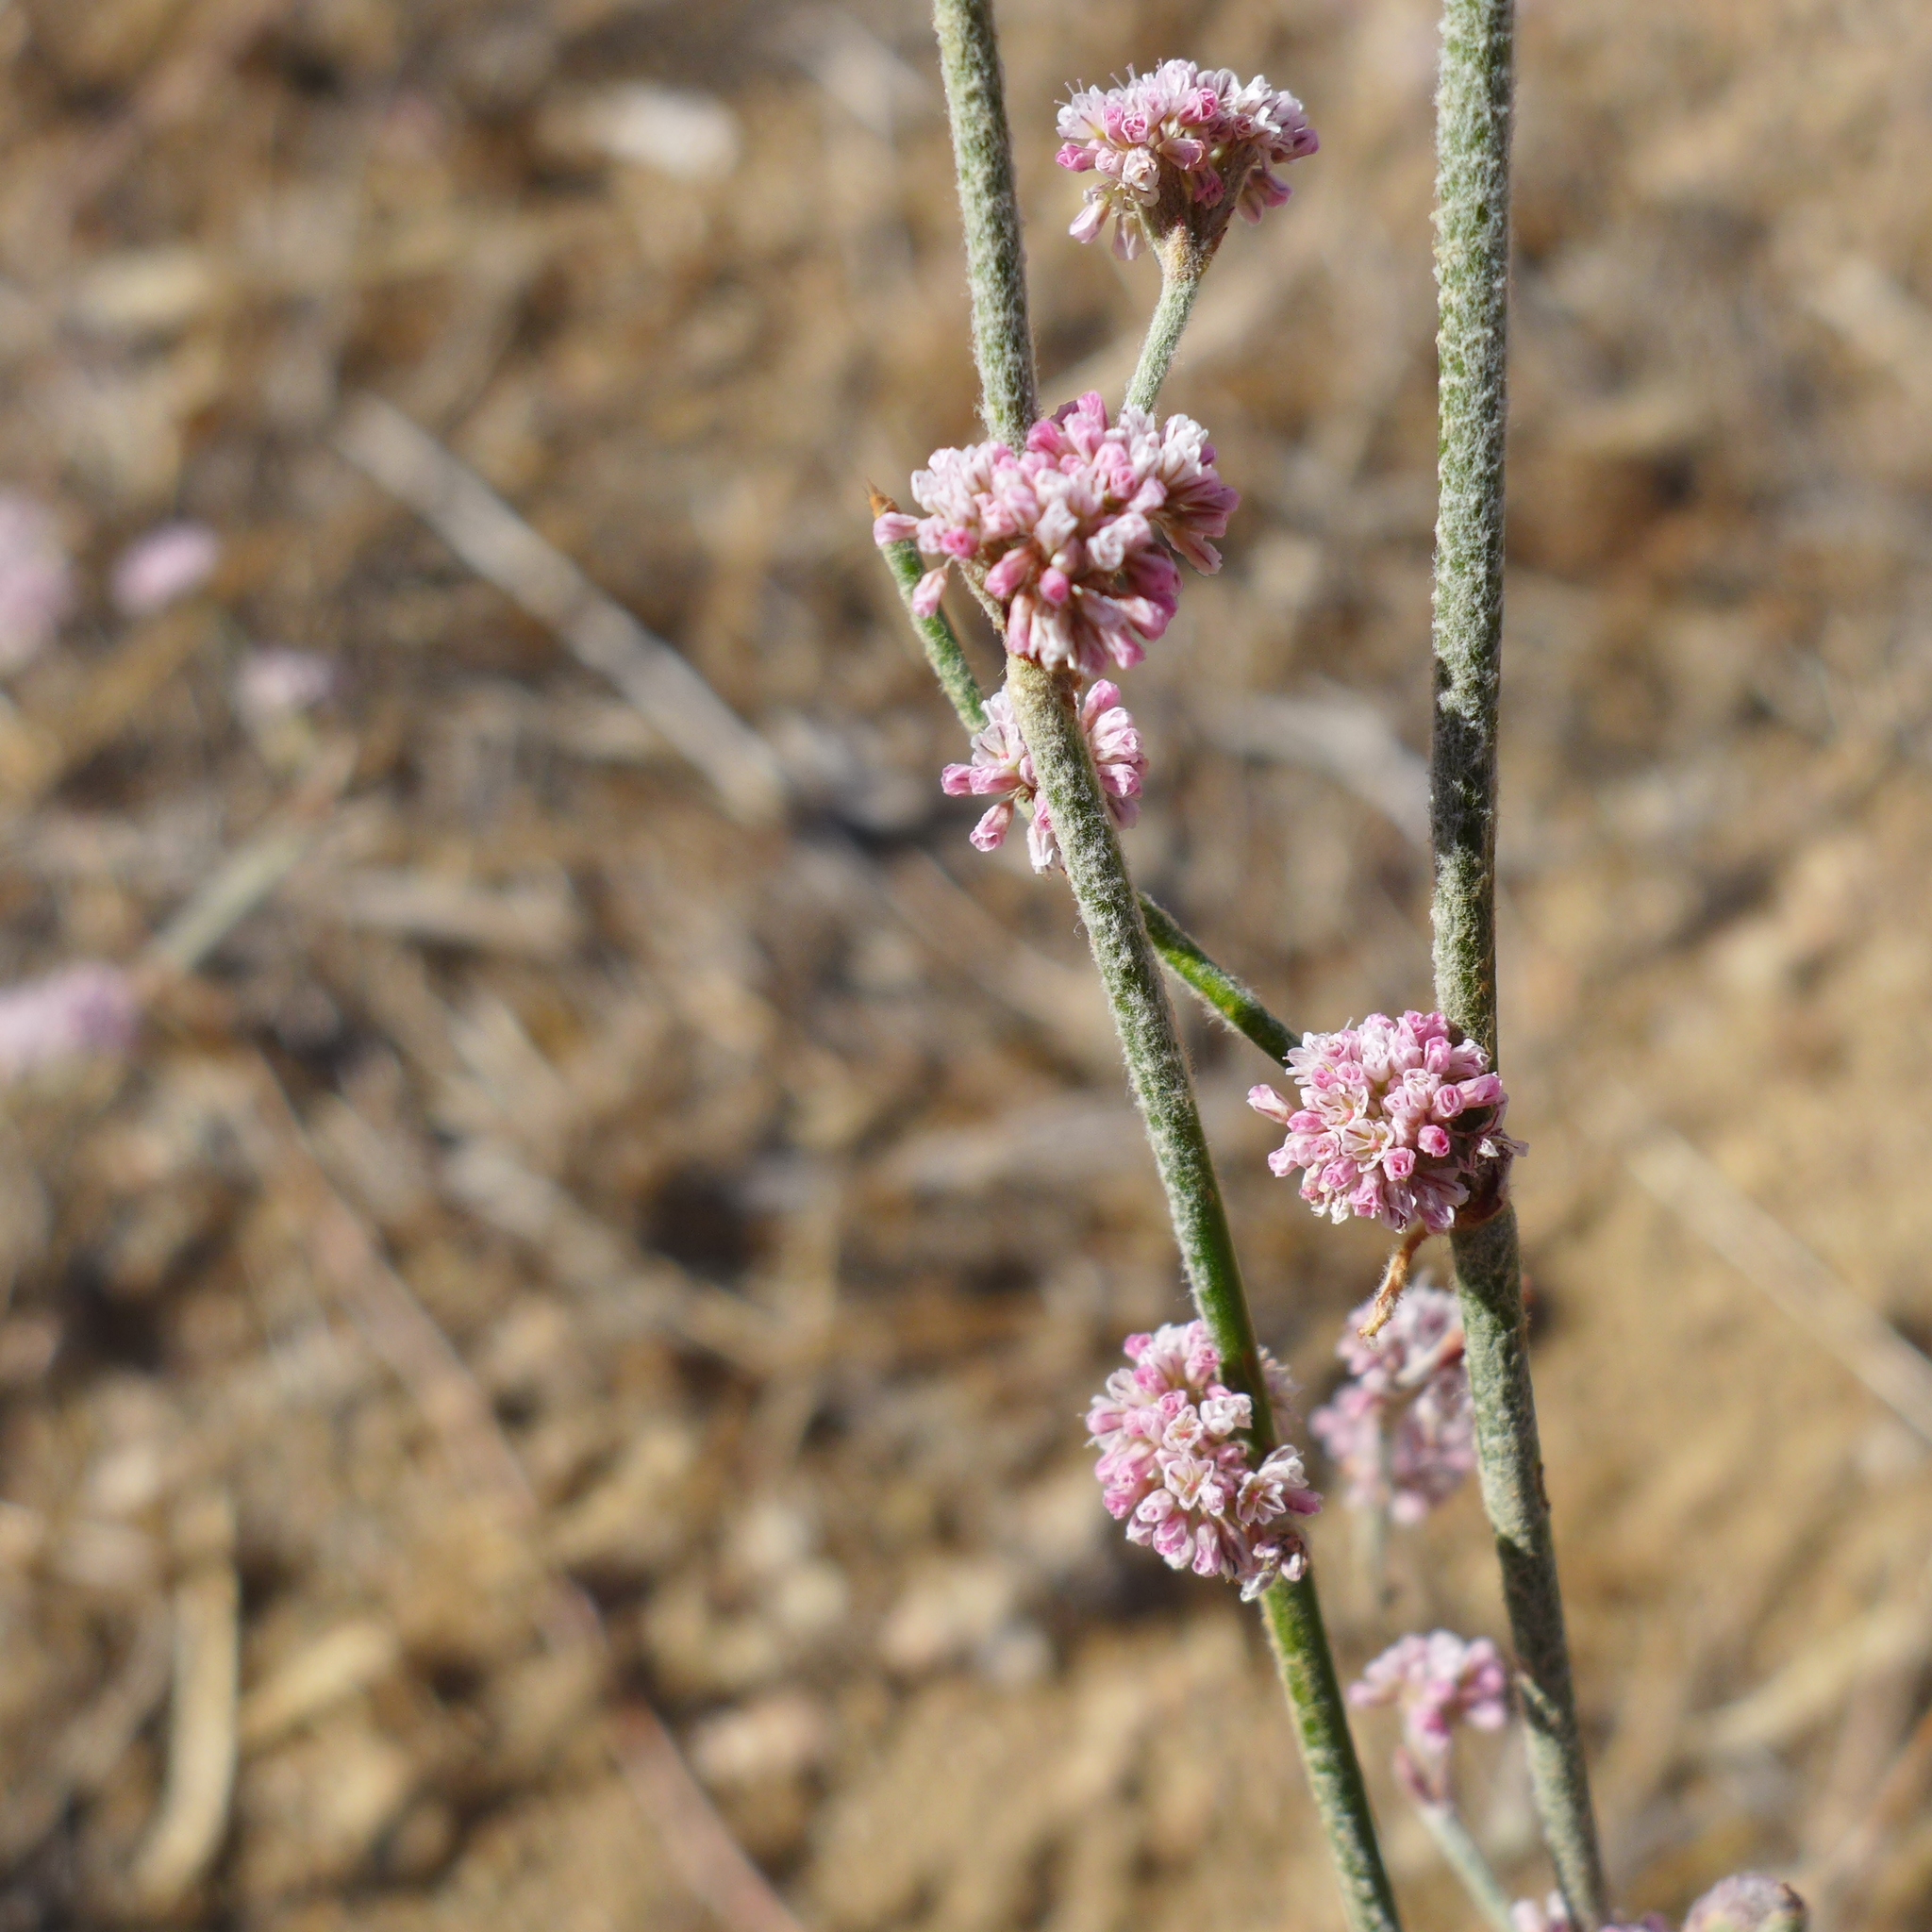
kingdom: Plantae
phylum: Tracheophyta
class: Magnoliopsida
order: Caryophyllales
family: Polygonaceae
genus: Eriogonum
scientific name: Eriogonum nudum
